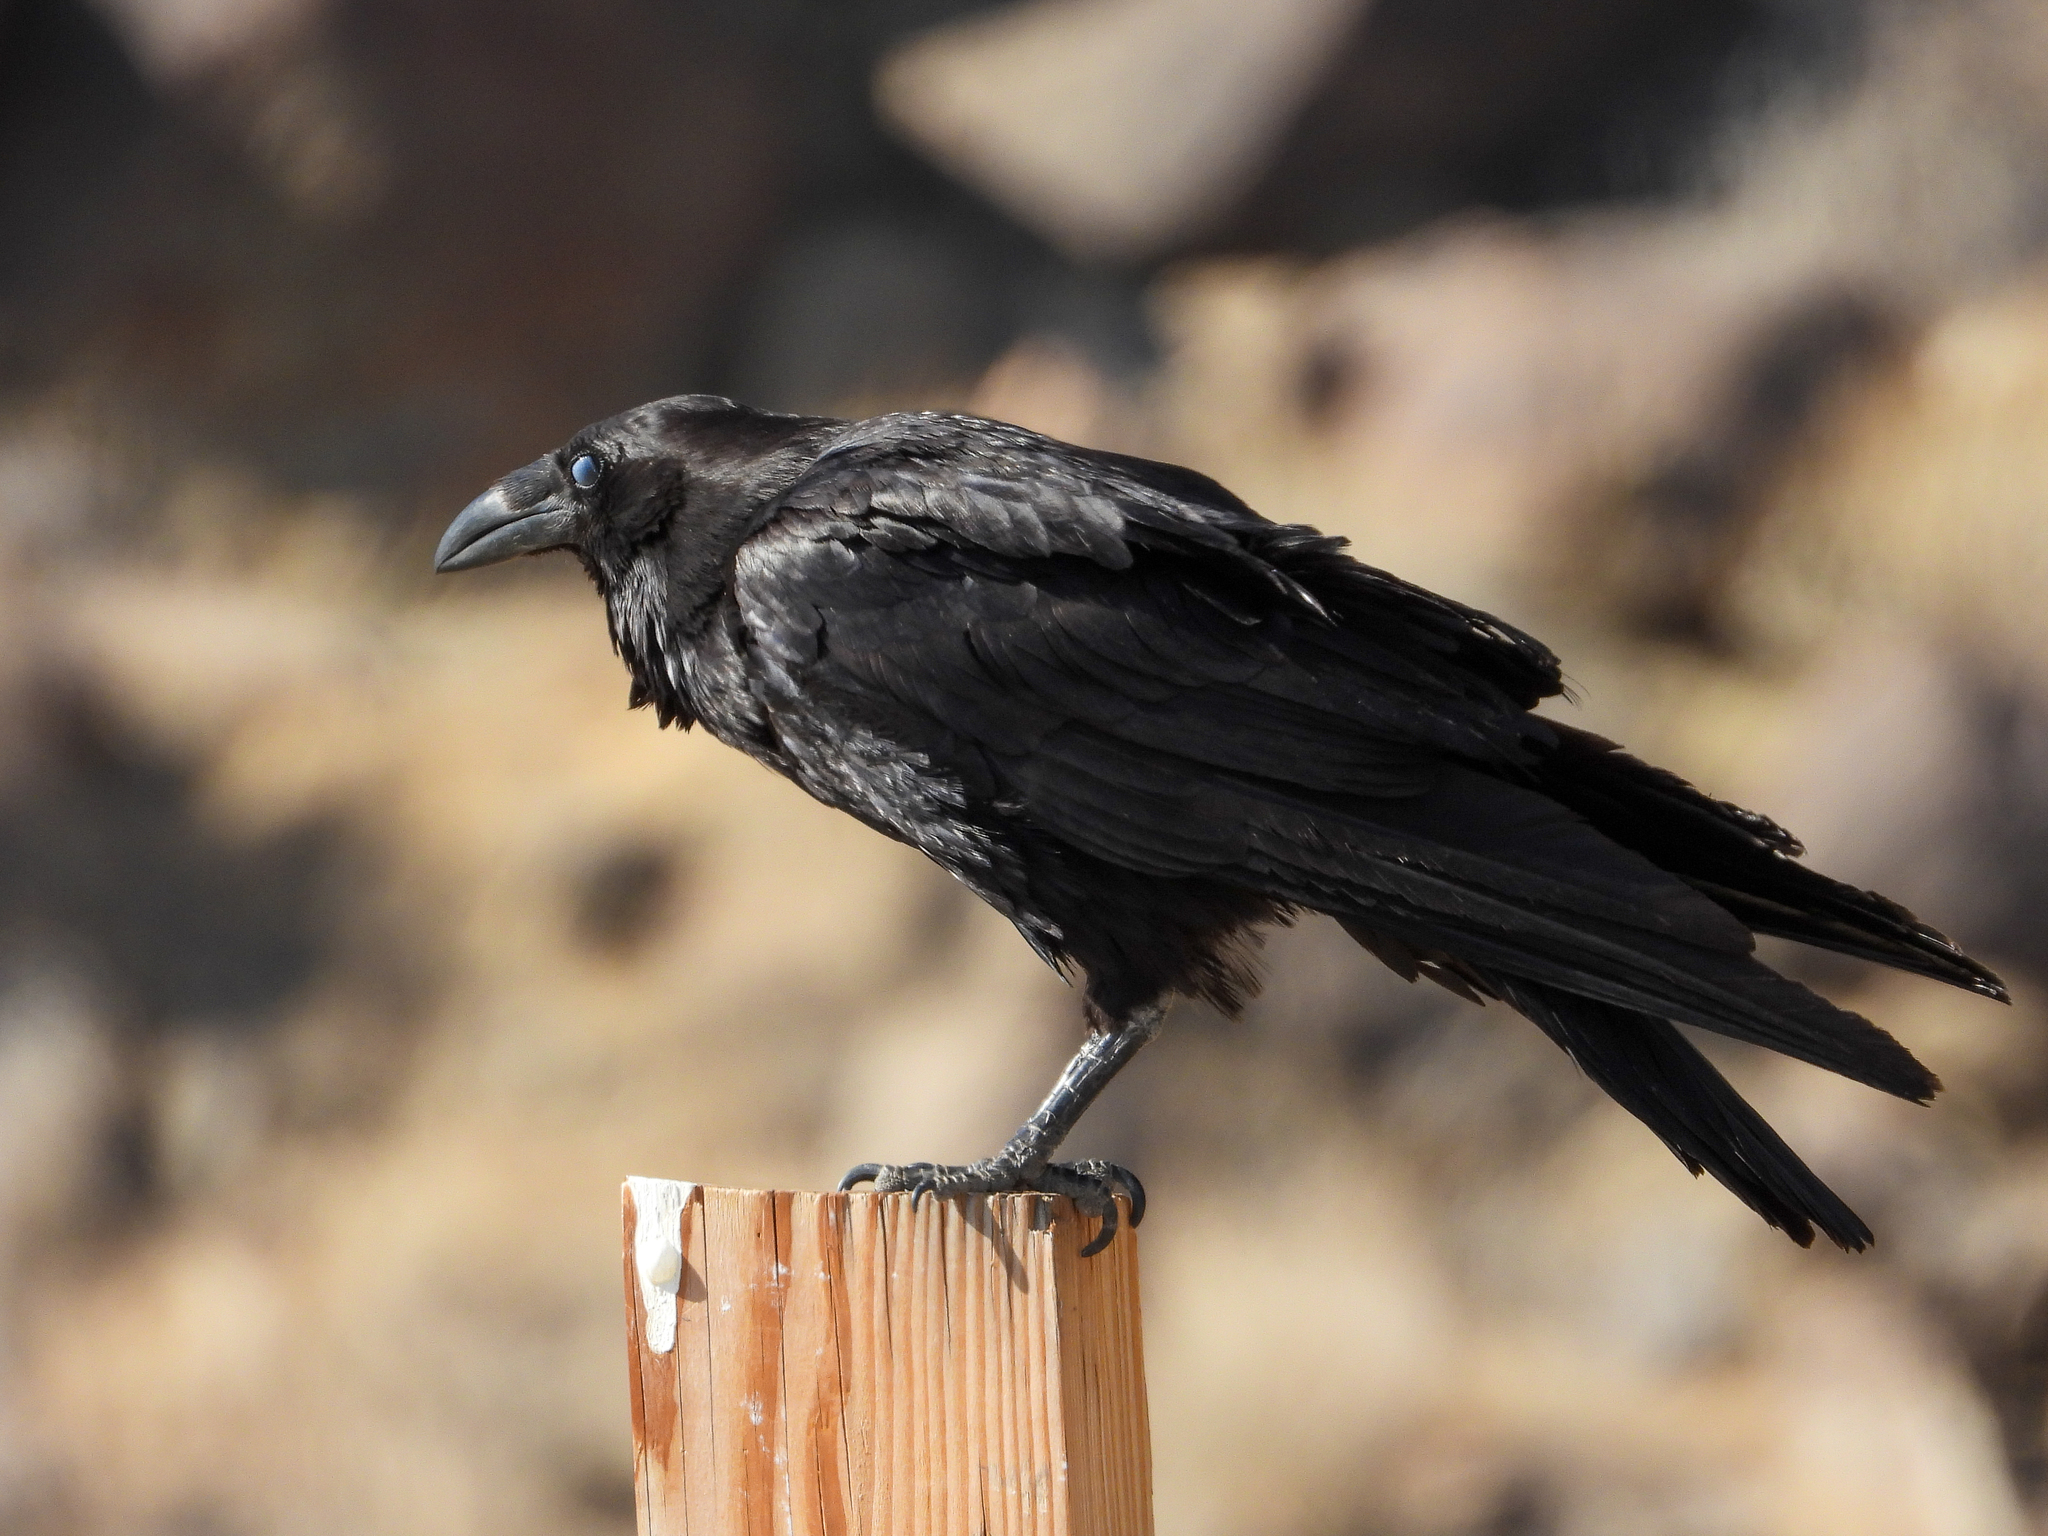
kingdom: Animalia
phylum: Chordata
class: Aves
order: Passeriformes
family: Corvidae
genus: Corvus
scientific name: Corvus corax
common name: Common raven
